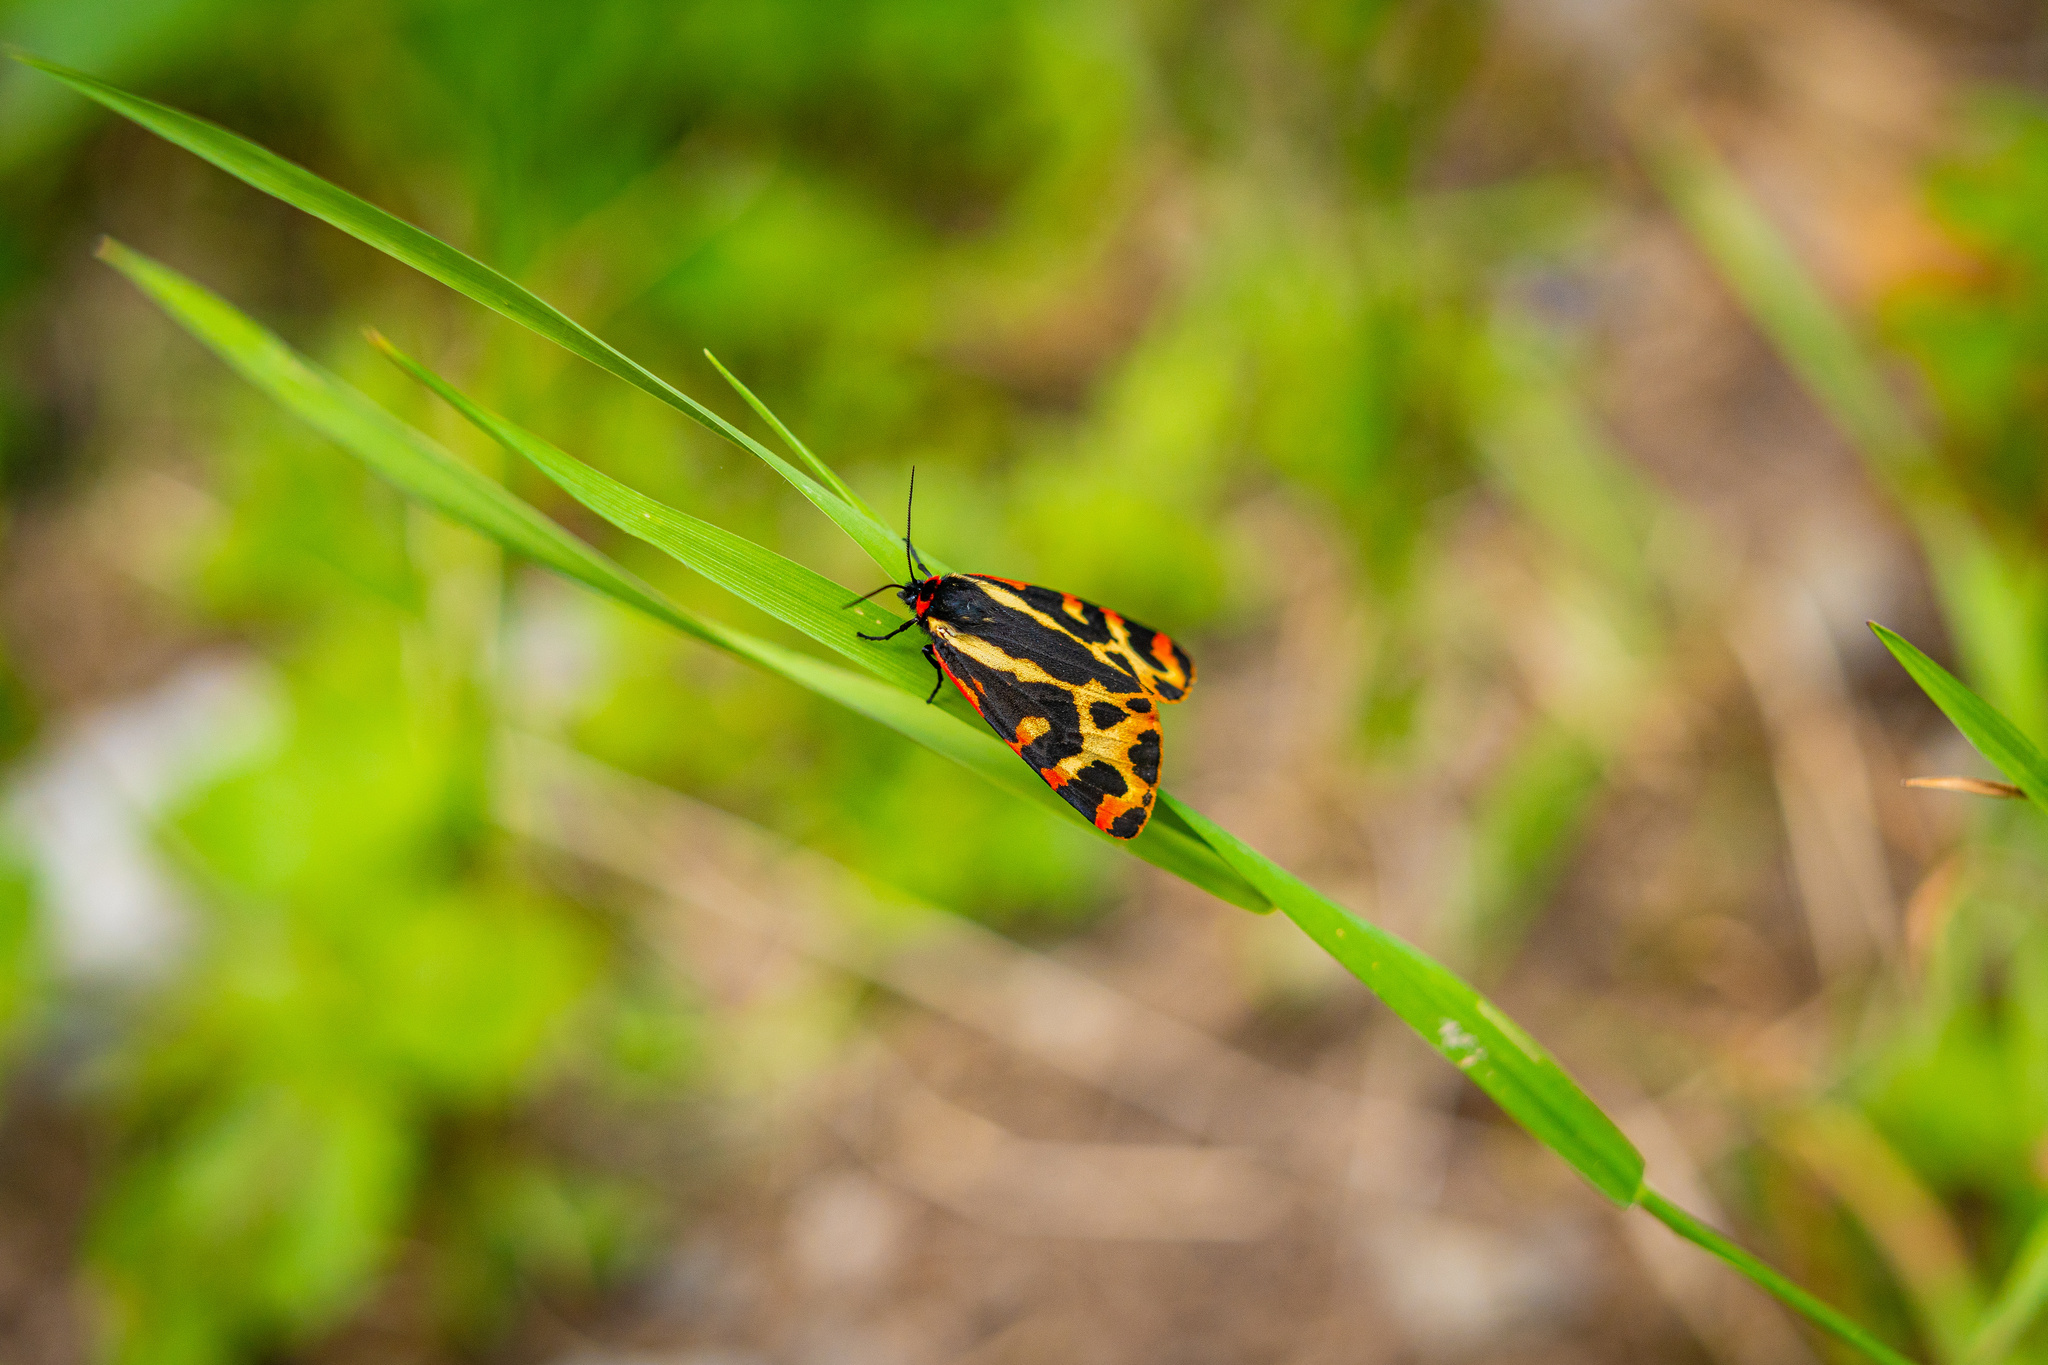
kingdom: Animalia
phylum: Arthropoda
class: Insecta
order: Lepidoptera
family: Erebidae
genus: Parasemia
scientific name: Parasemia plantaginis
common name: Wood tiger
